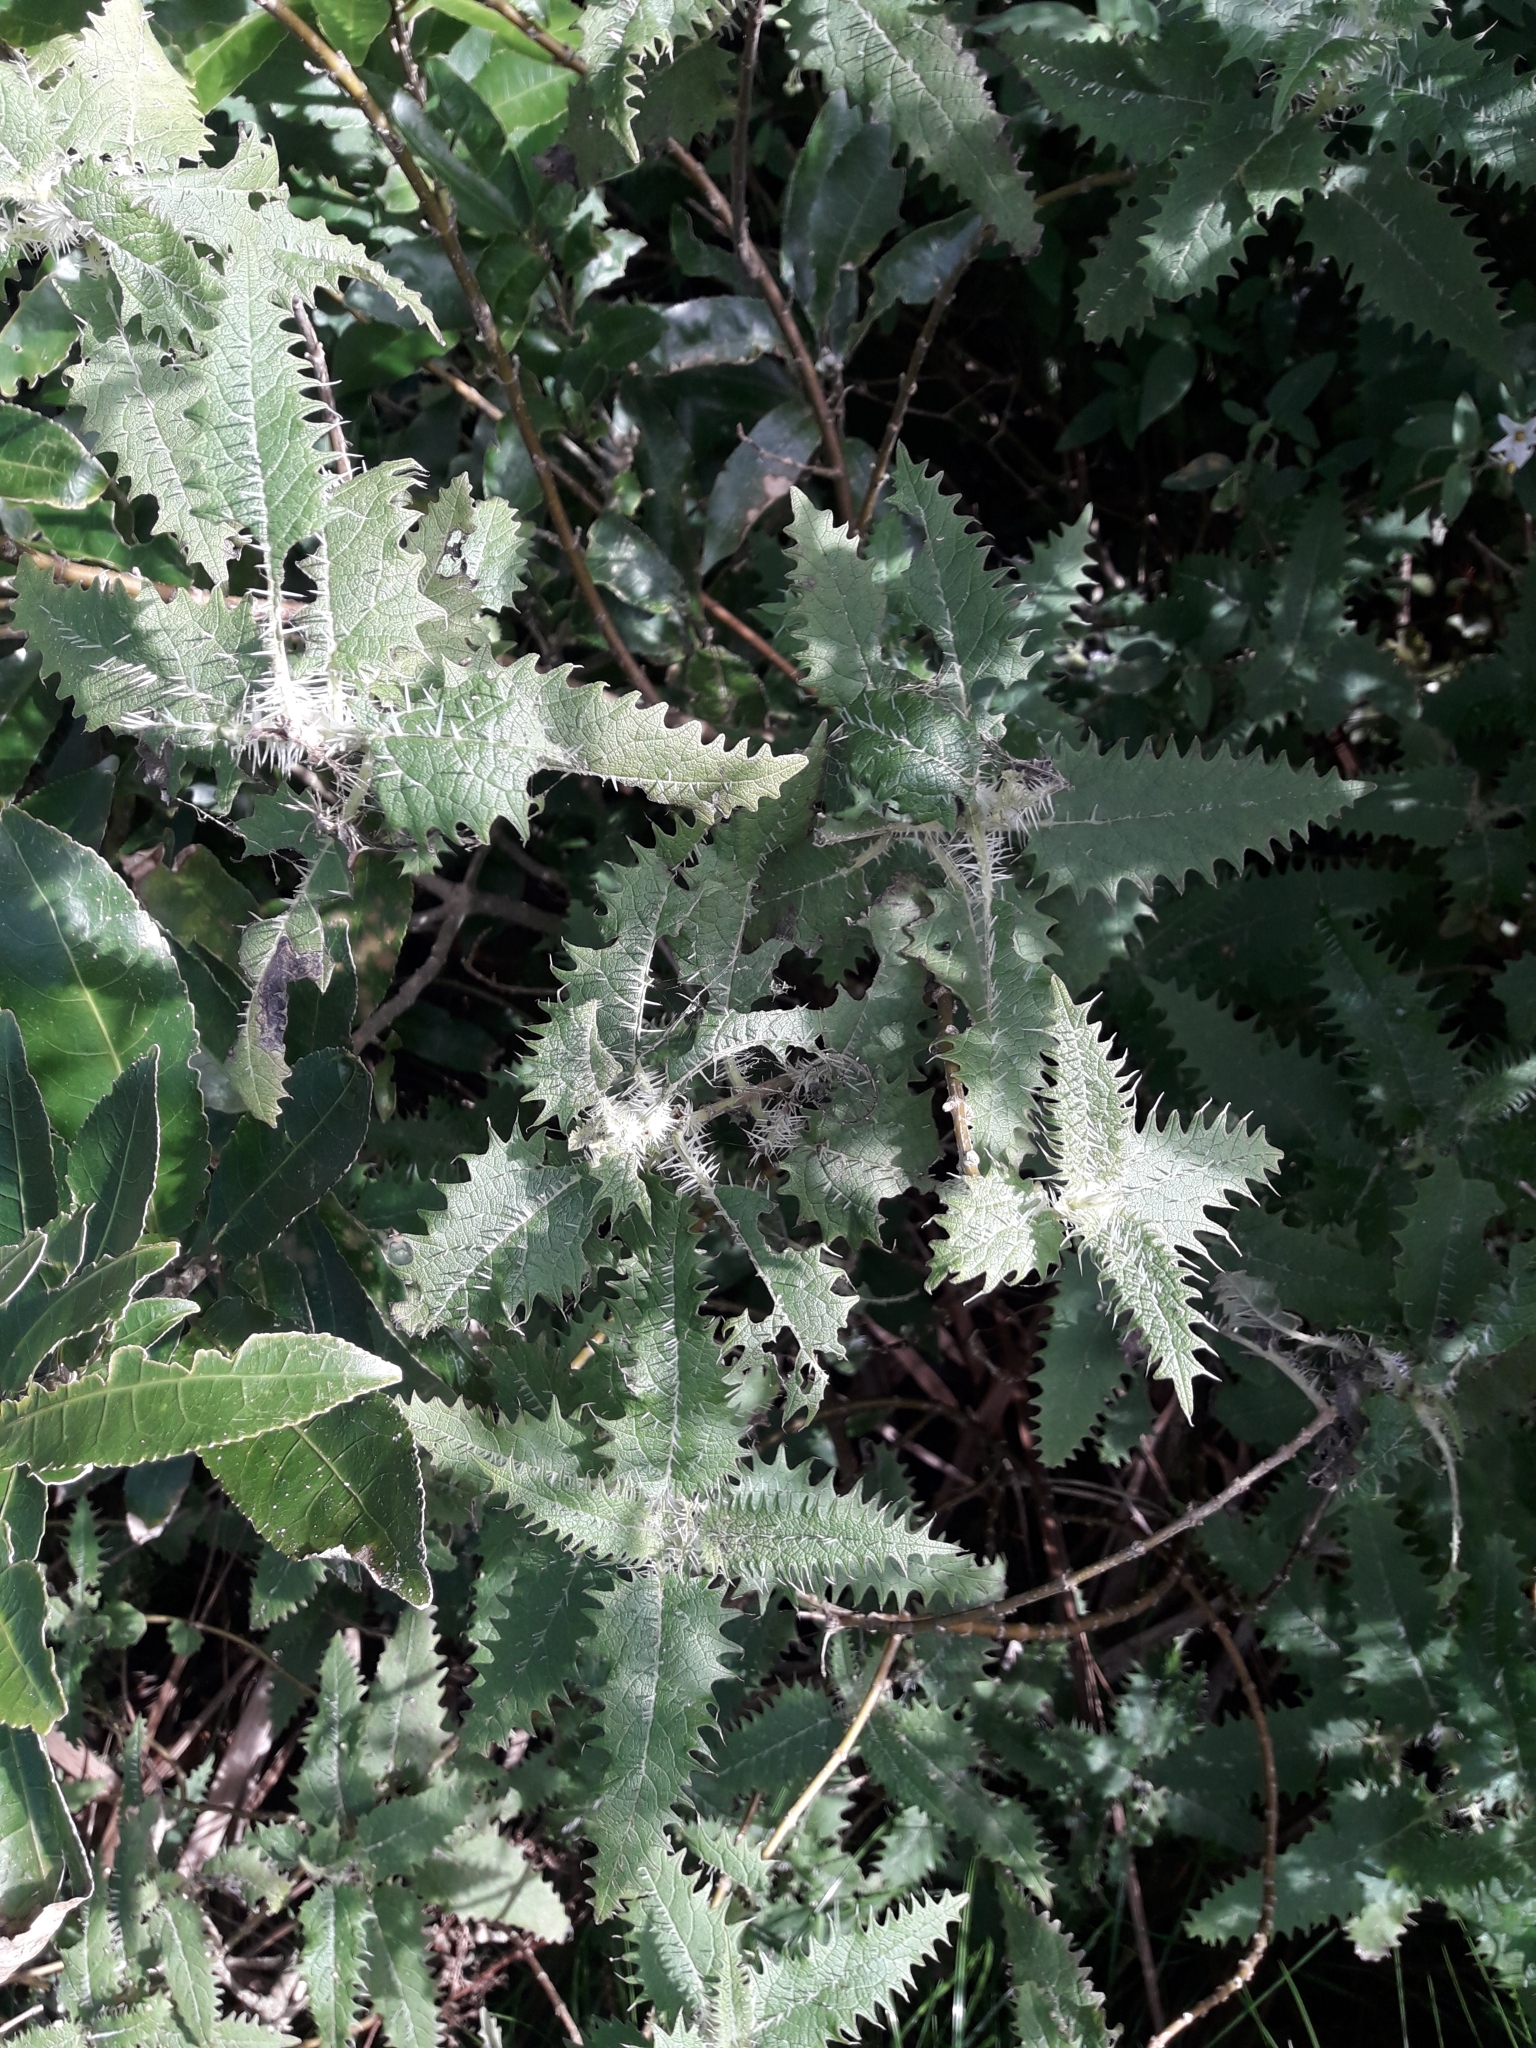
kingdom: Plantae
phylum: Tracheophyta
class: Magnoliopsida
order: Rosales
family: Urticaceae
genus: Urtica
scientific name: Urtica ferox
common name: Tree nettle
